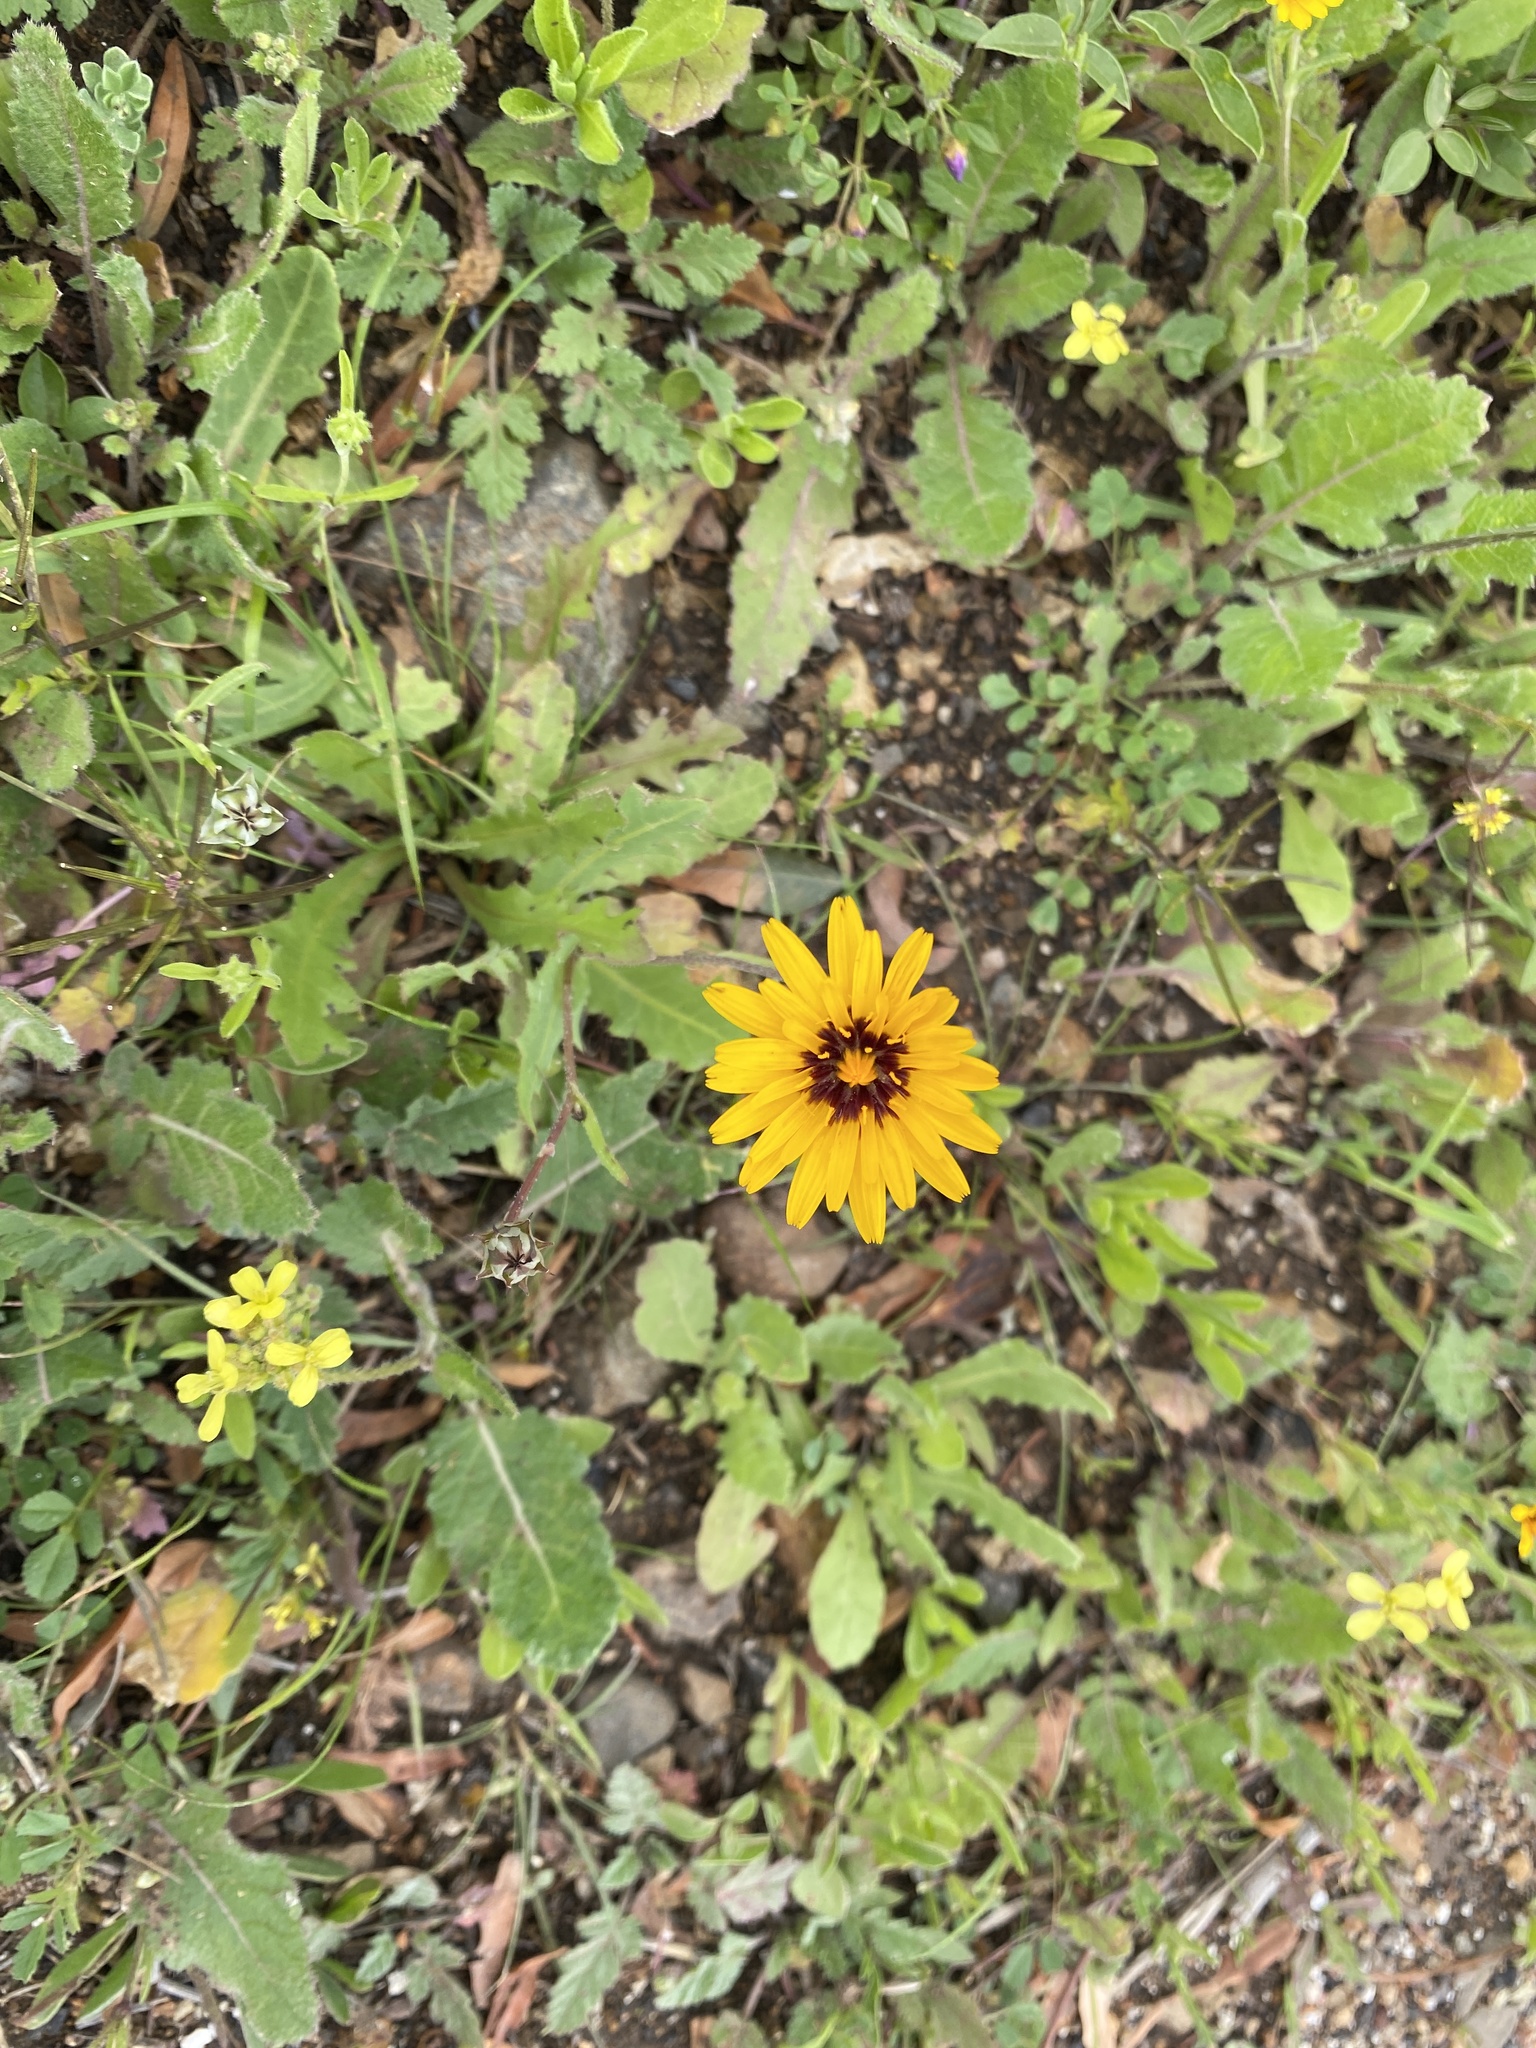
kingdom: Plantae
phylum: Tracheophyta
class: Magnoliopsida
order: Asterales
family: Asteraceae
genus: Reichardia
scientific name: Reichardia tingitana
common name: Reichardia
